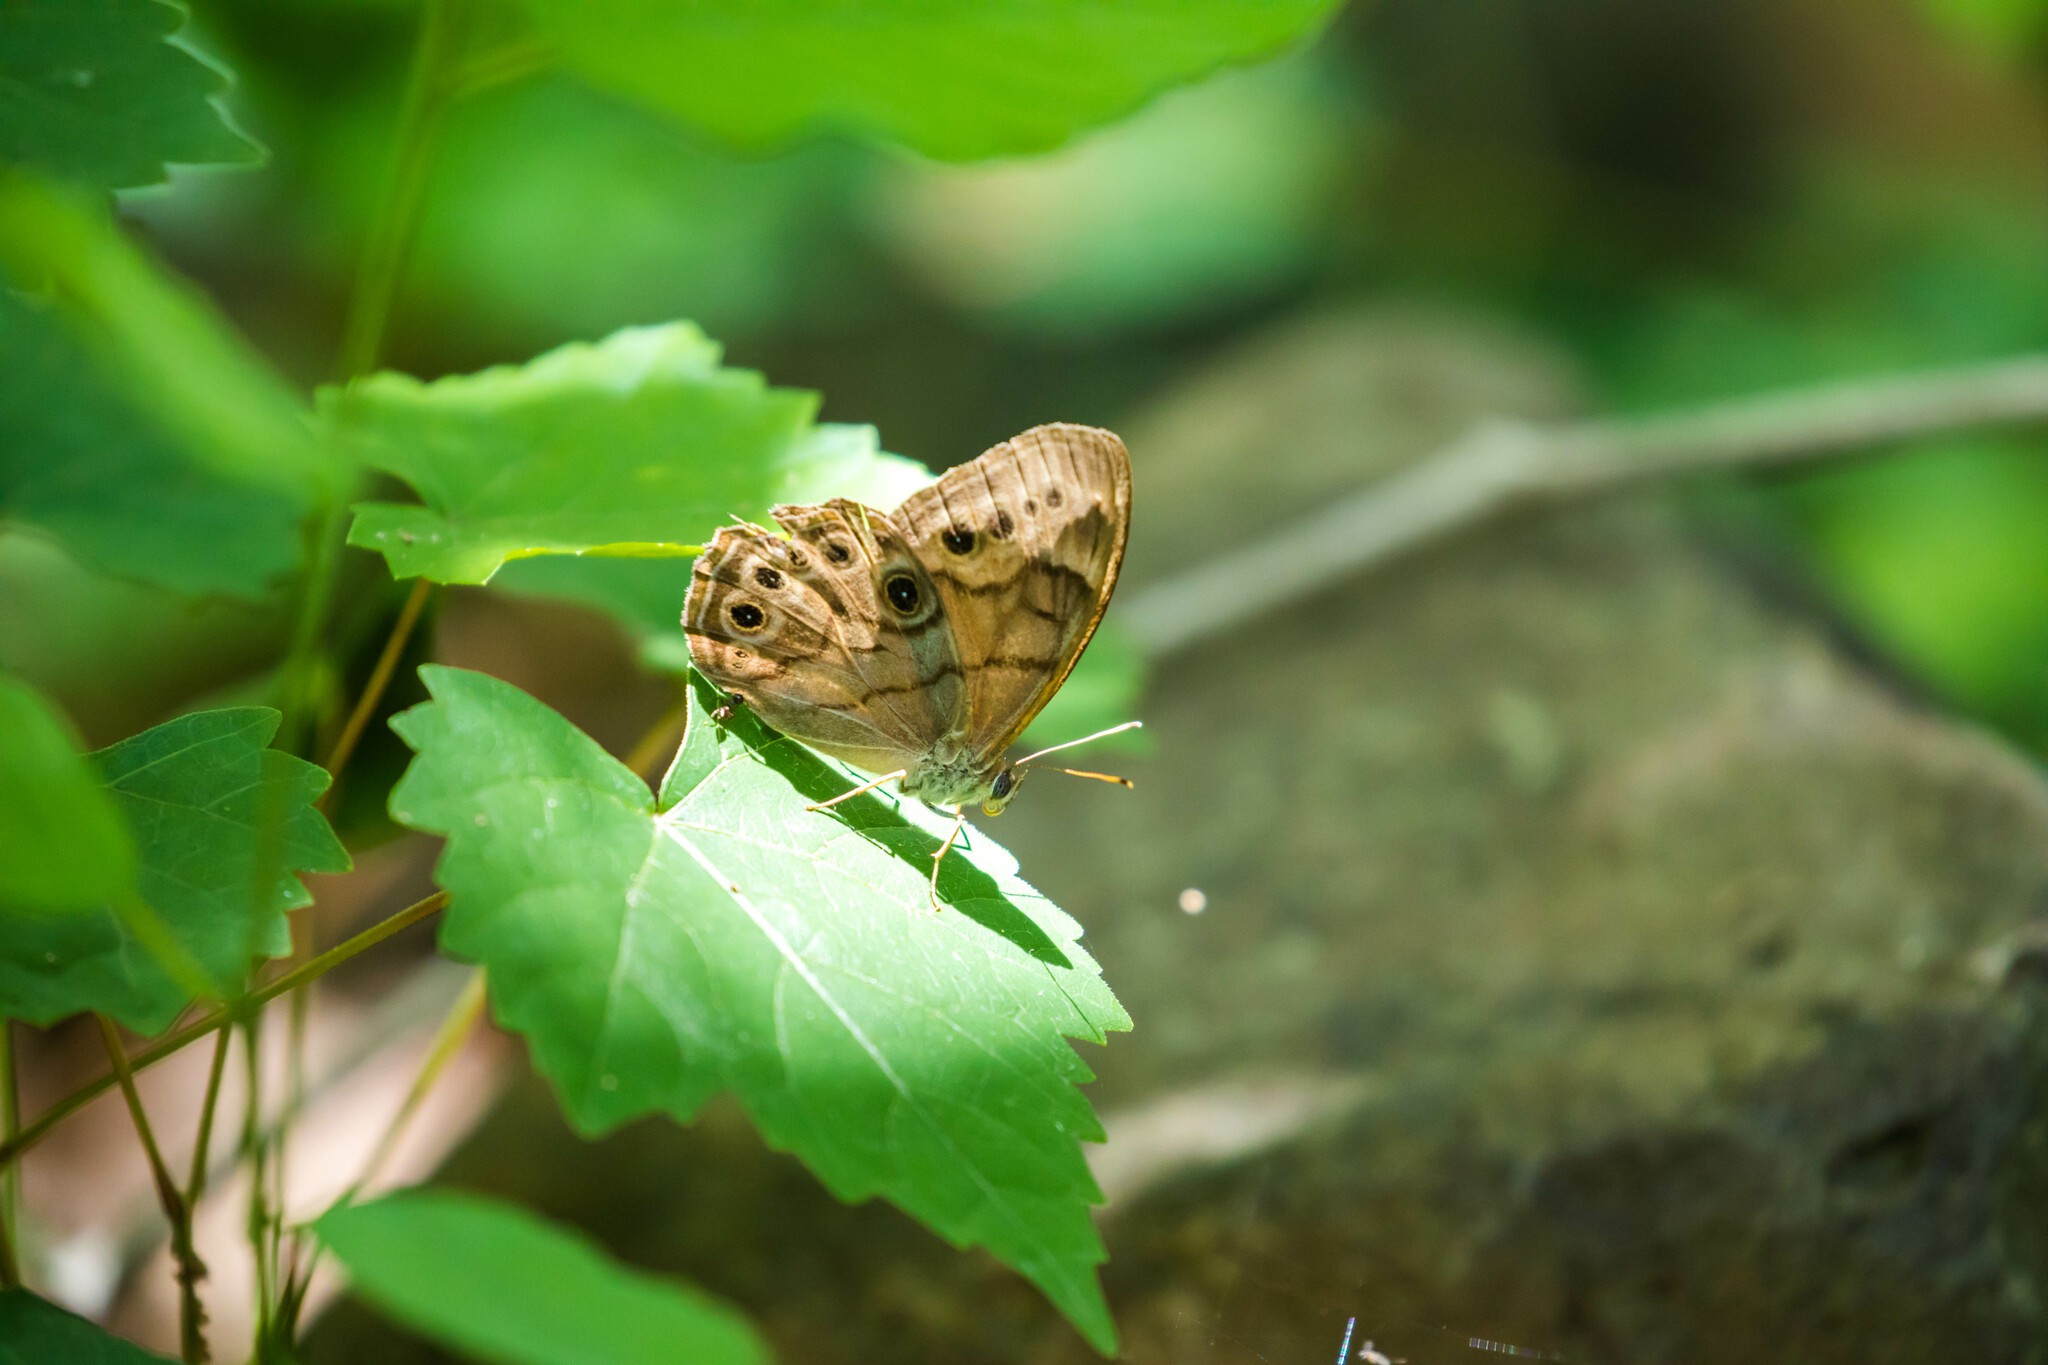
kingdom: Animalia
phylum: Arthropoda
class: Insecta
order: Lepidoptera
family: Nymphalidae
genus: Lethe
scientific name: Lethe anthedon
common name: Northern pearly-eye
